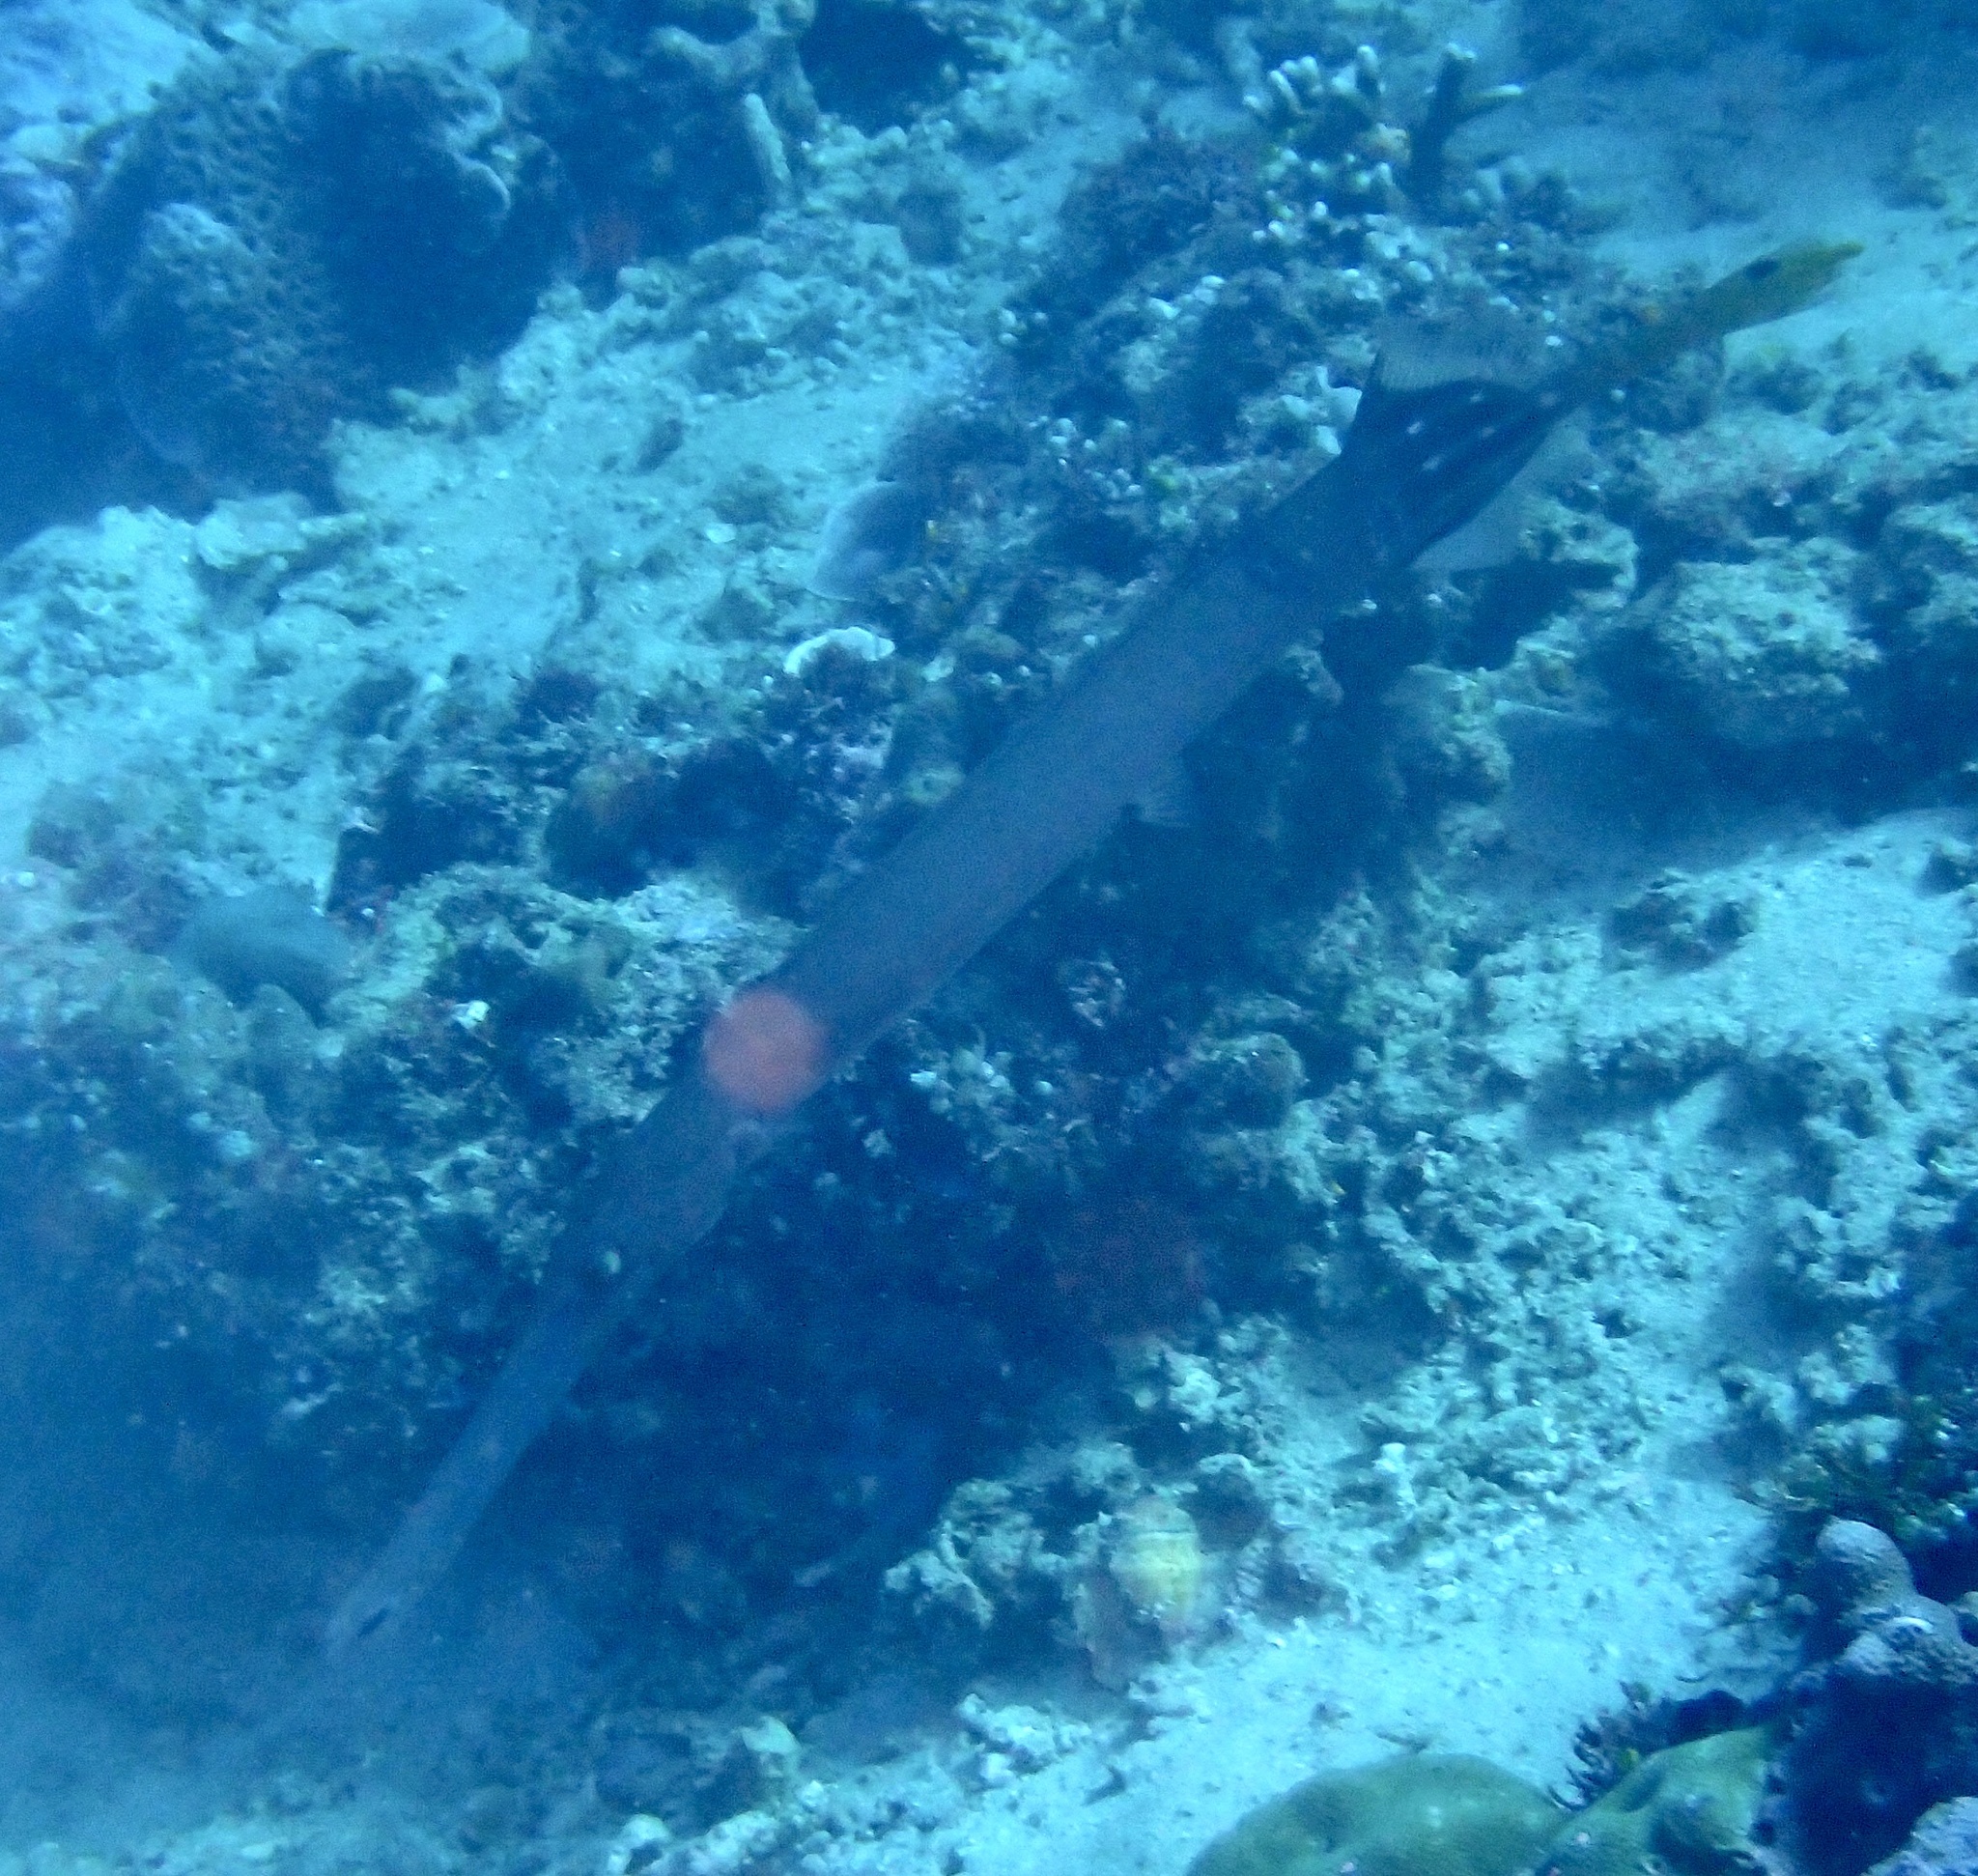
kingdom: Animalia
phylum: Chordata
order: Syngnathiformes
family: Aulostomidae
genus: Aulostomus
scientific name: Aulostomus chinensis
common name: Chinese trumpetfish
